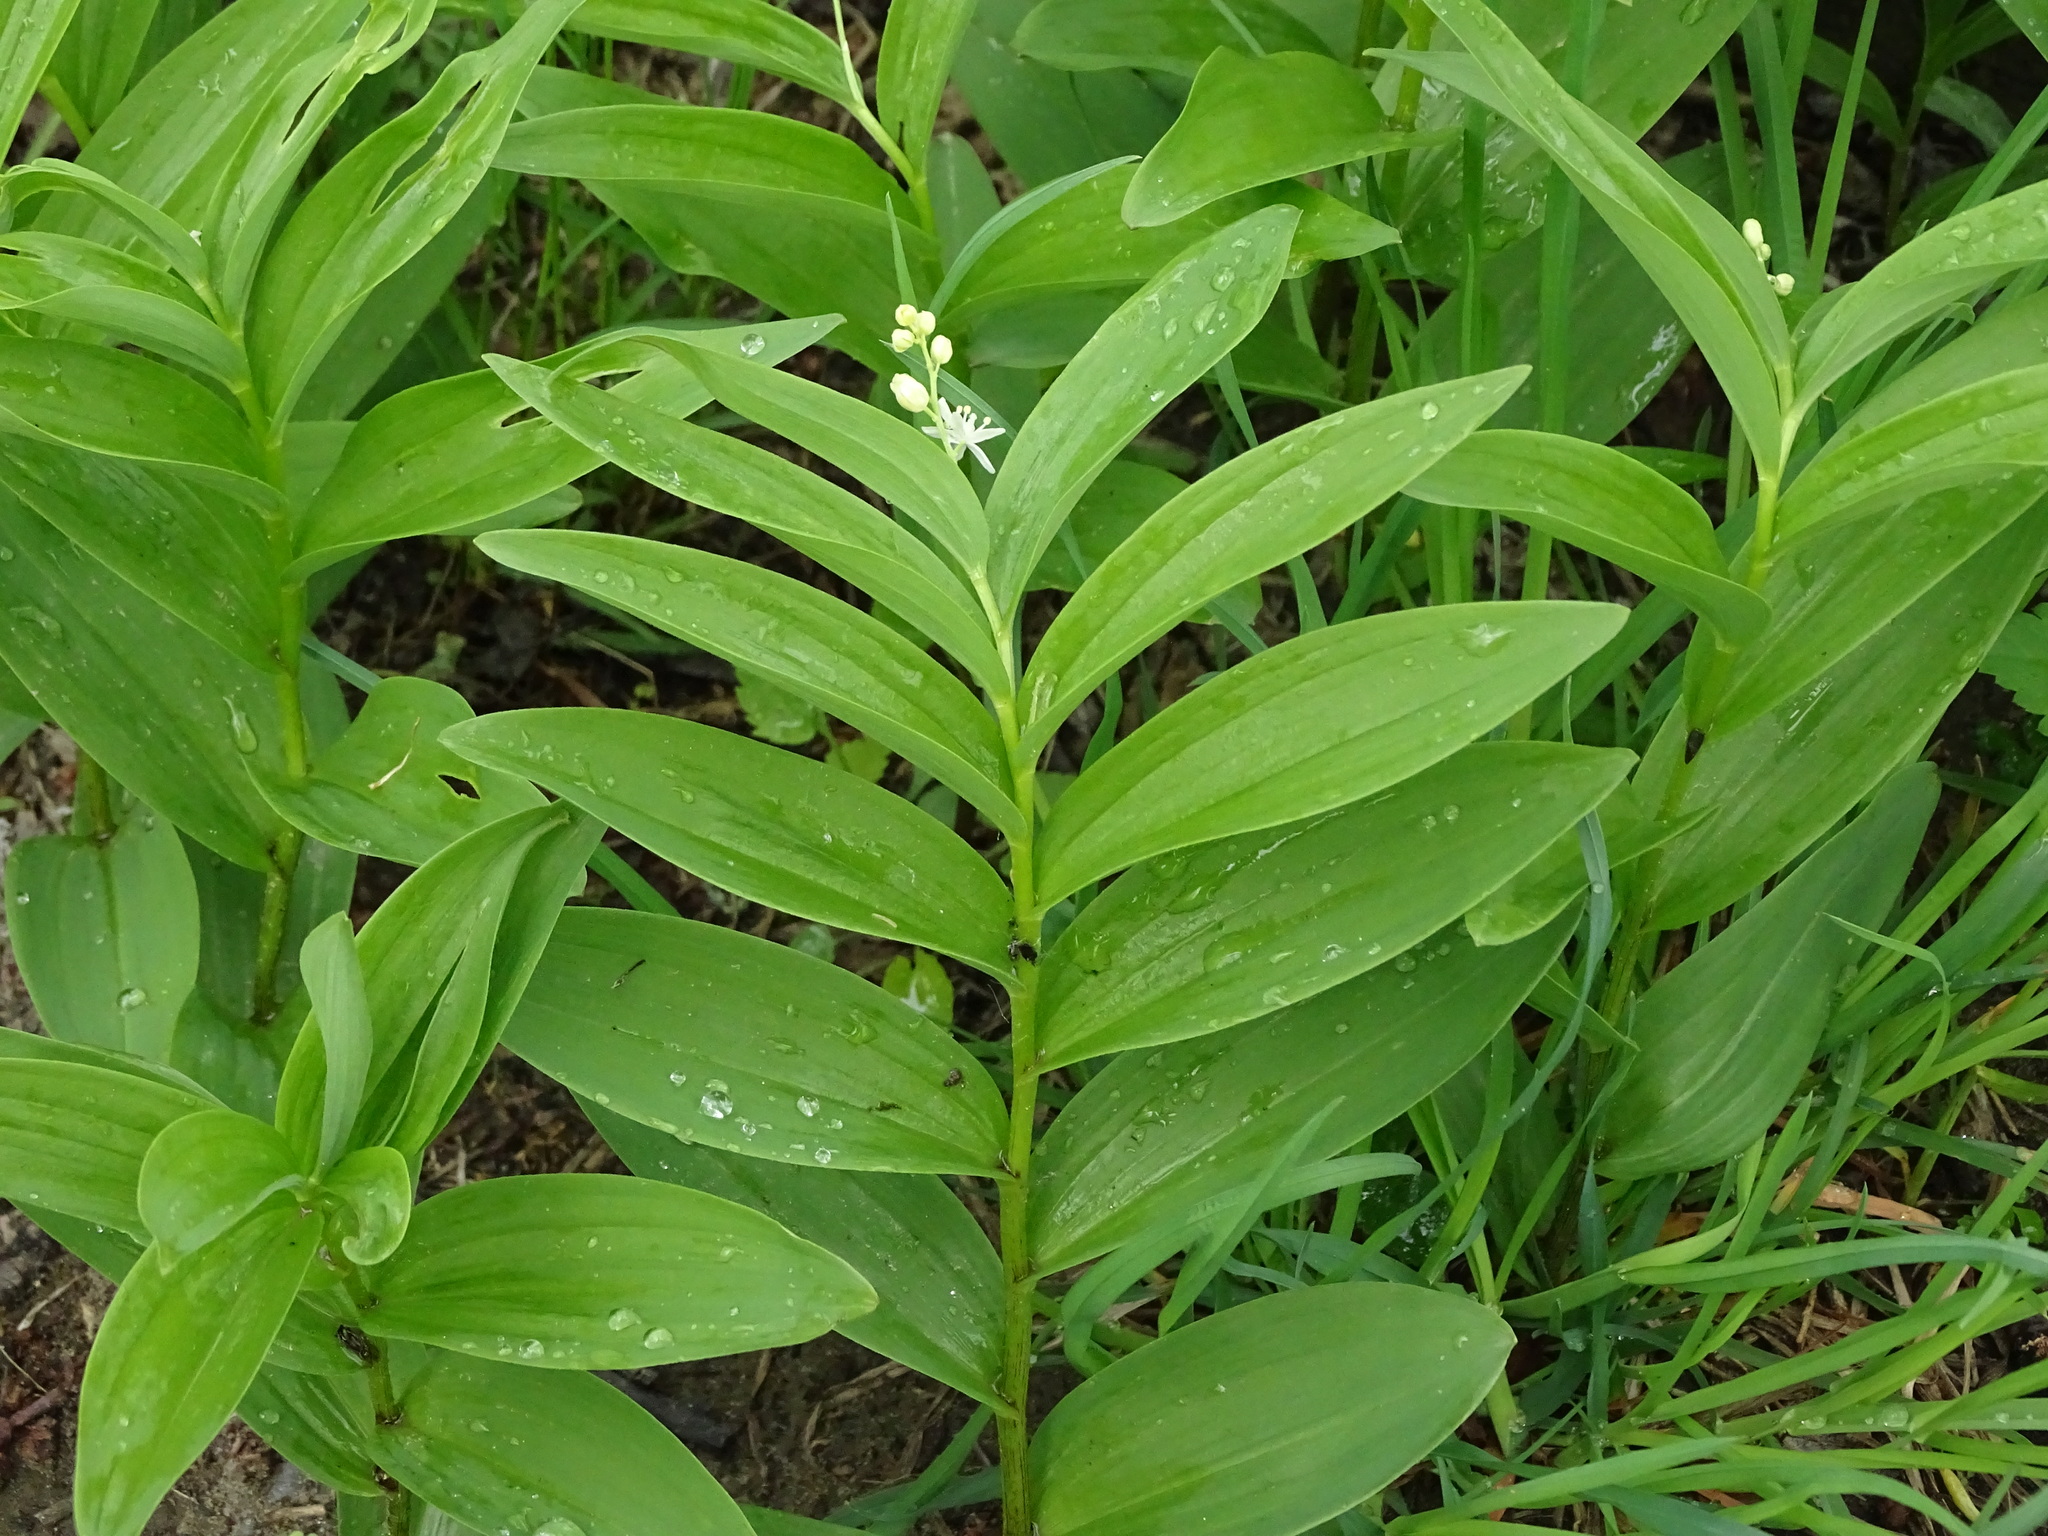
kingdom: Plantae
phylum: Tracheophyta
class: Liliopsida
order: Asparagales
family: Asparagaceae
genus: Maianthemum
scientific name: Maianthemum stellatum
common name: Little false solomon's seal
